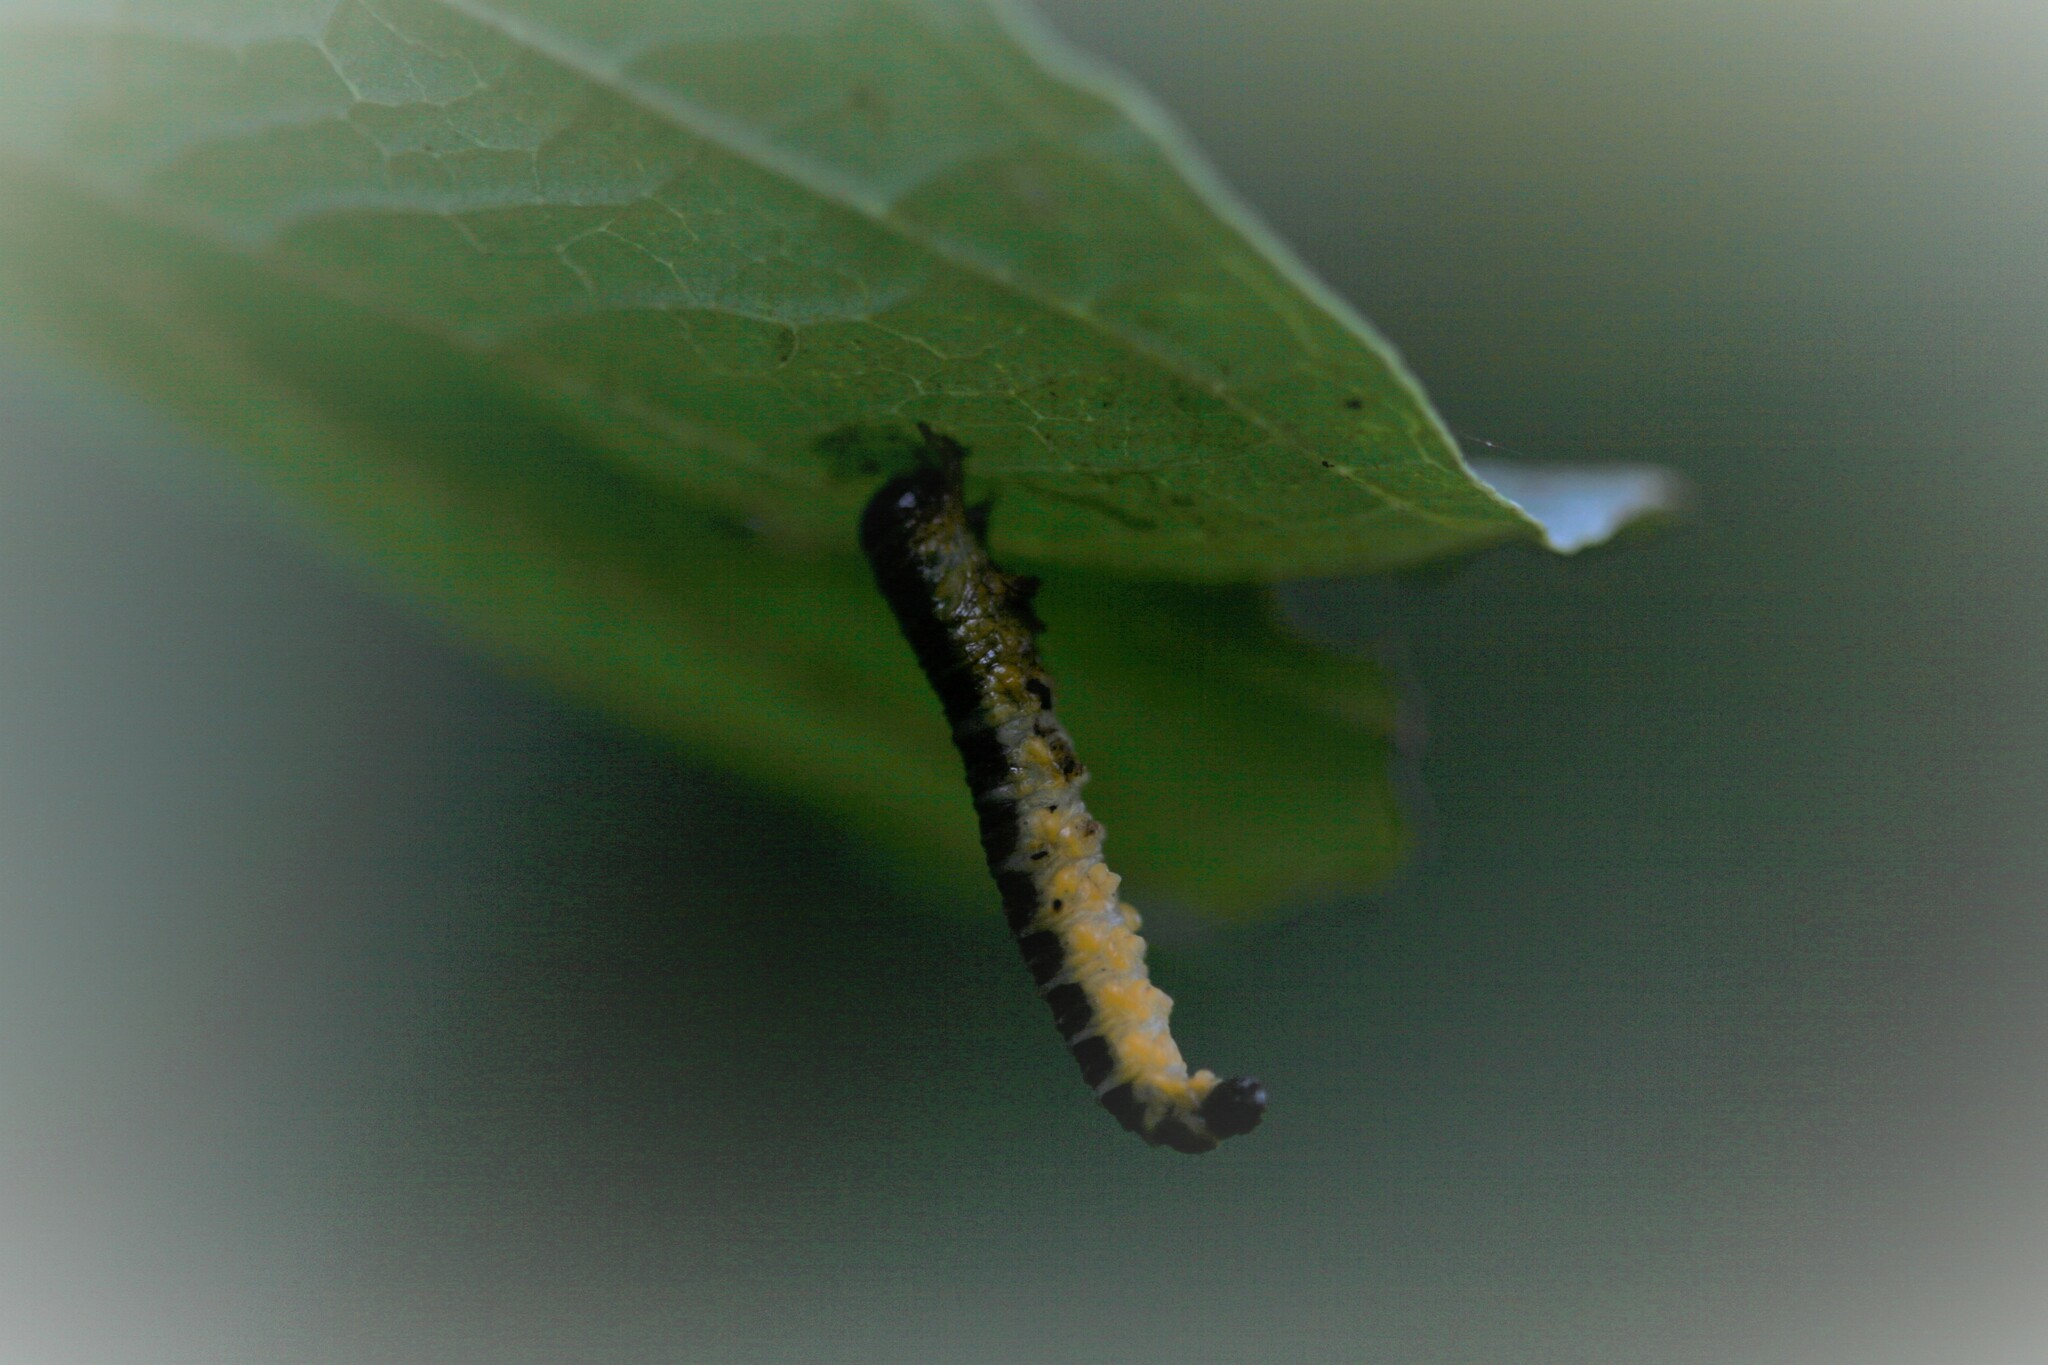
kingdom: Animalia
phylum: Arthropoda
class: Insecta
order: Hymenoptera
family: Tenthredinidae
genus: Macremphytus
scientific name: Macremphytus
